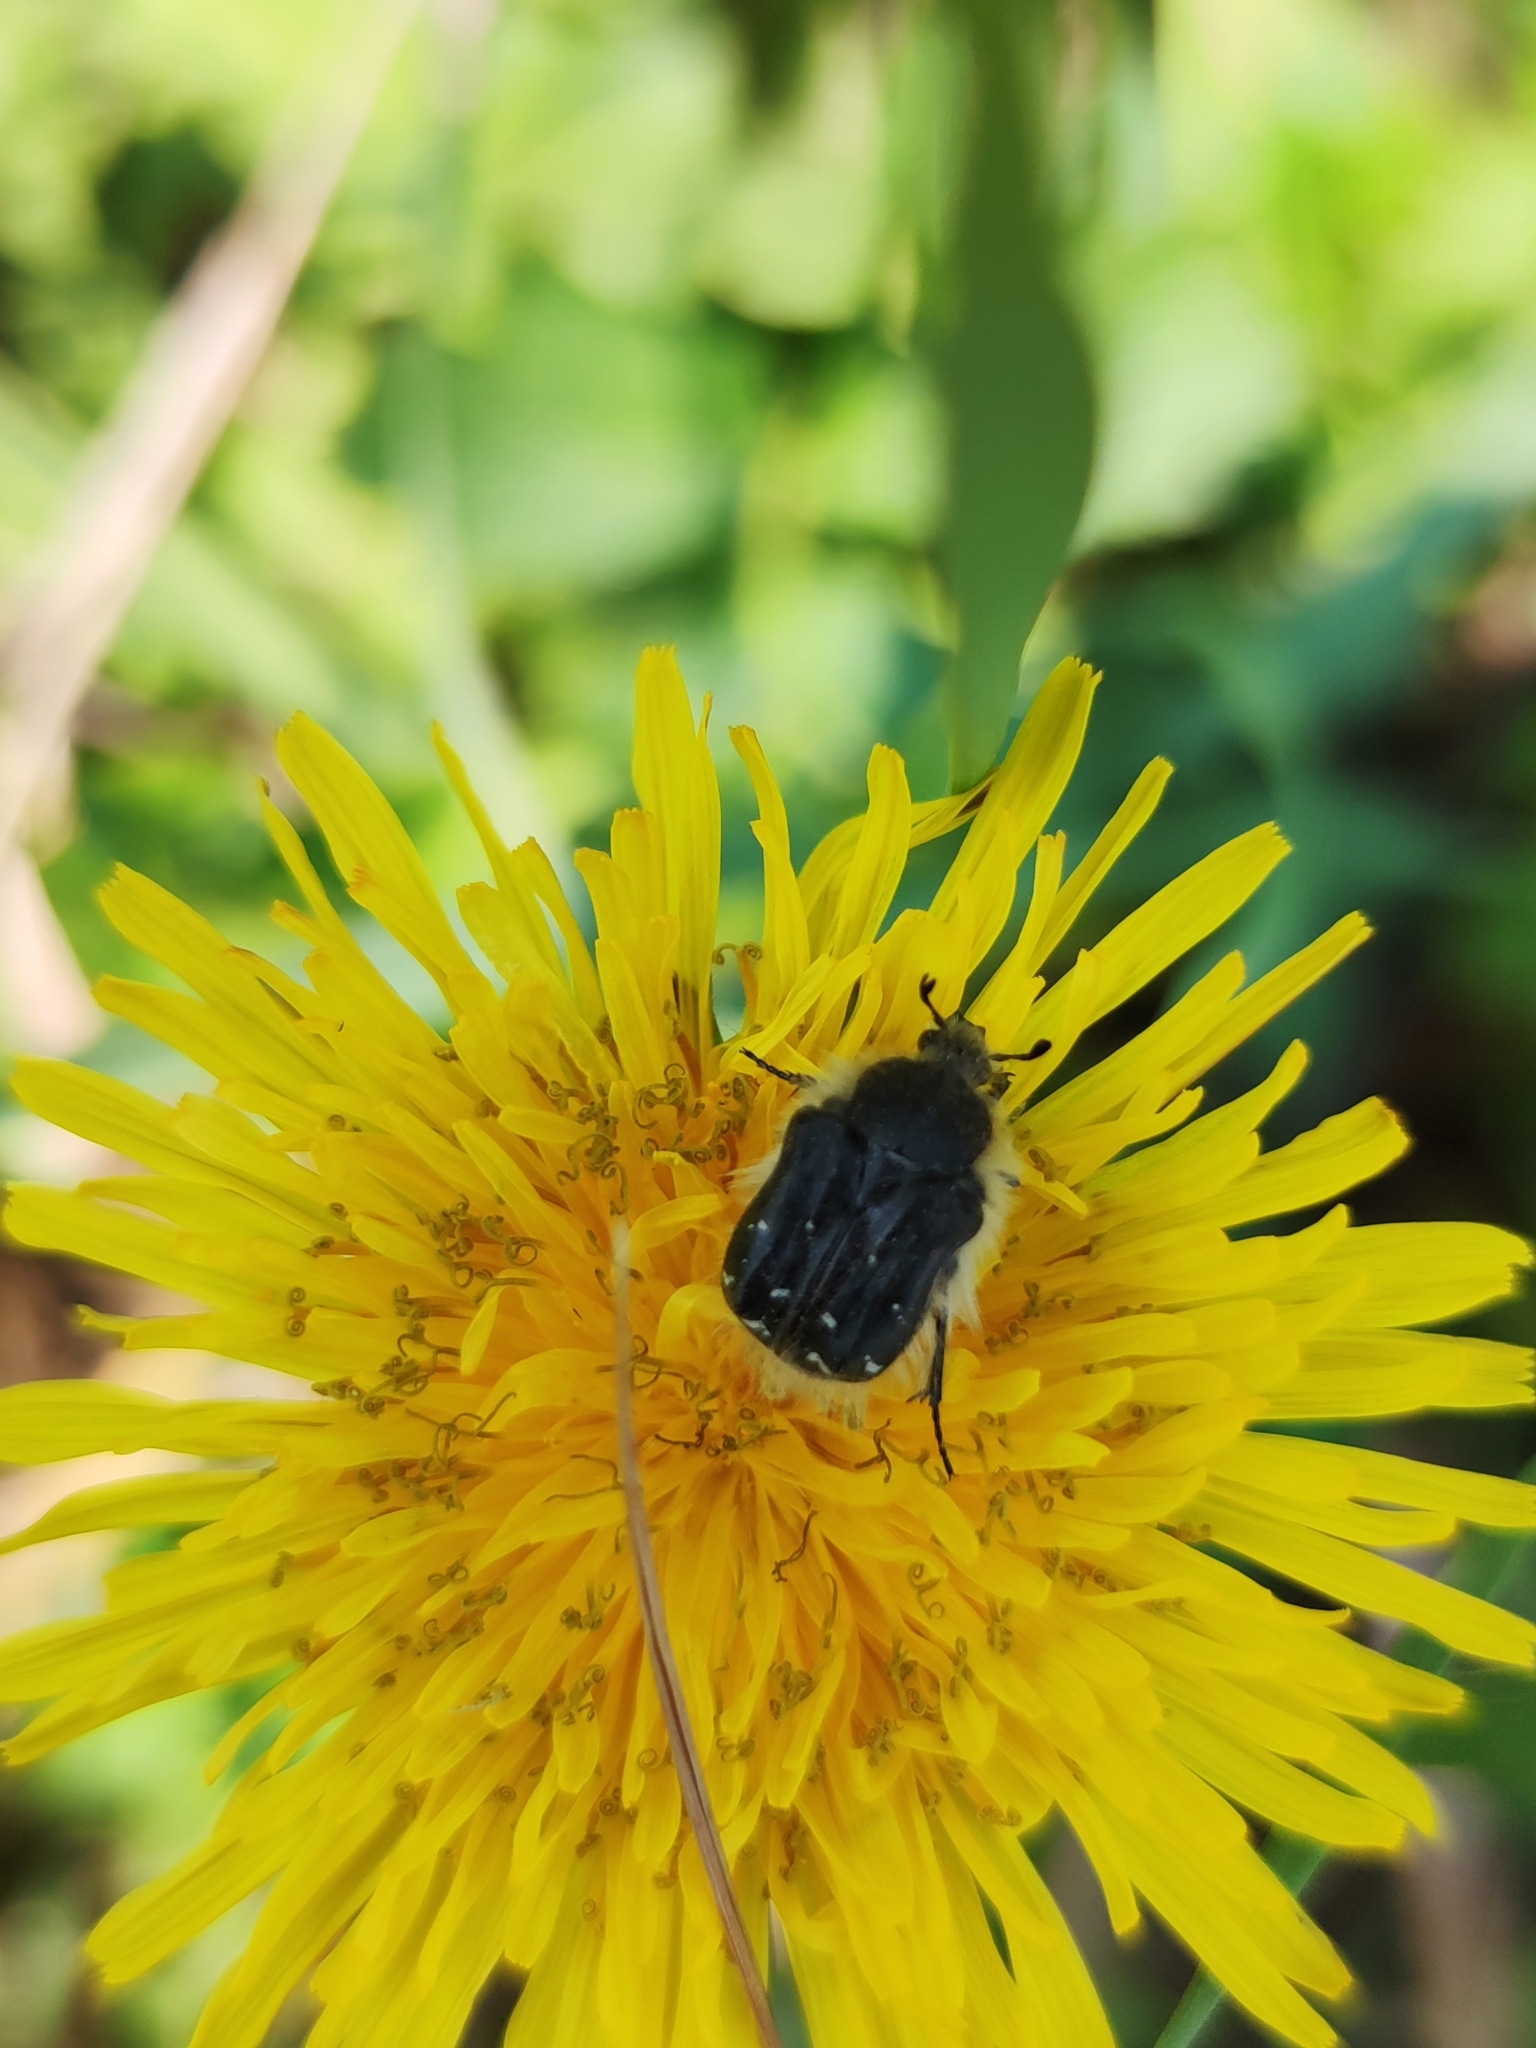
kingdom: Animalia
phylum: Arthropoda
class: Insecta
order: Coleoptera
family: Scarabaeidae
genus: Tropinota
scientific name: Tropinota hirta
